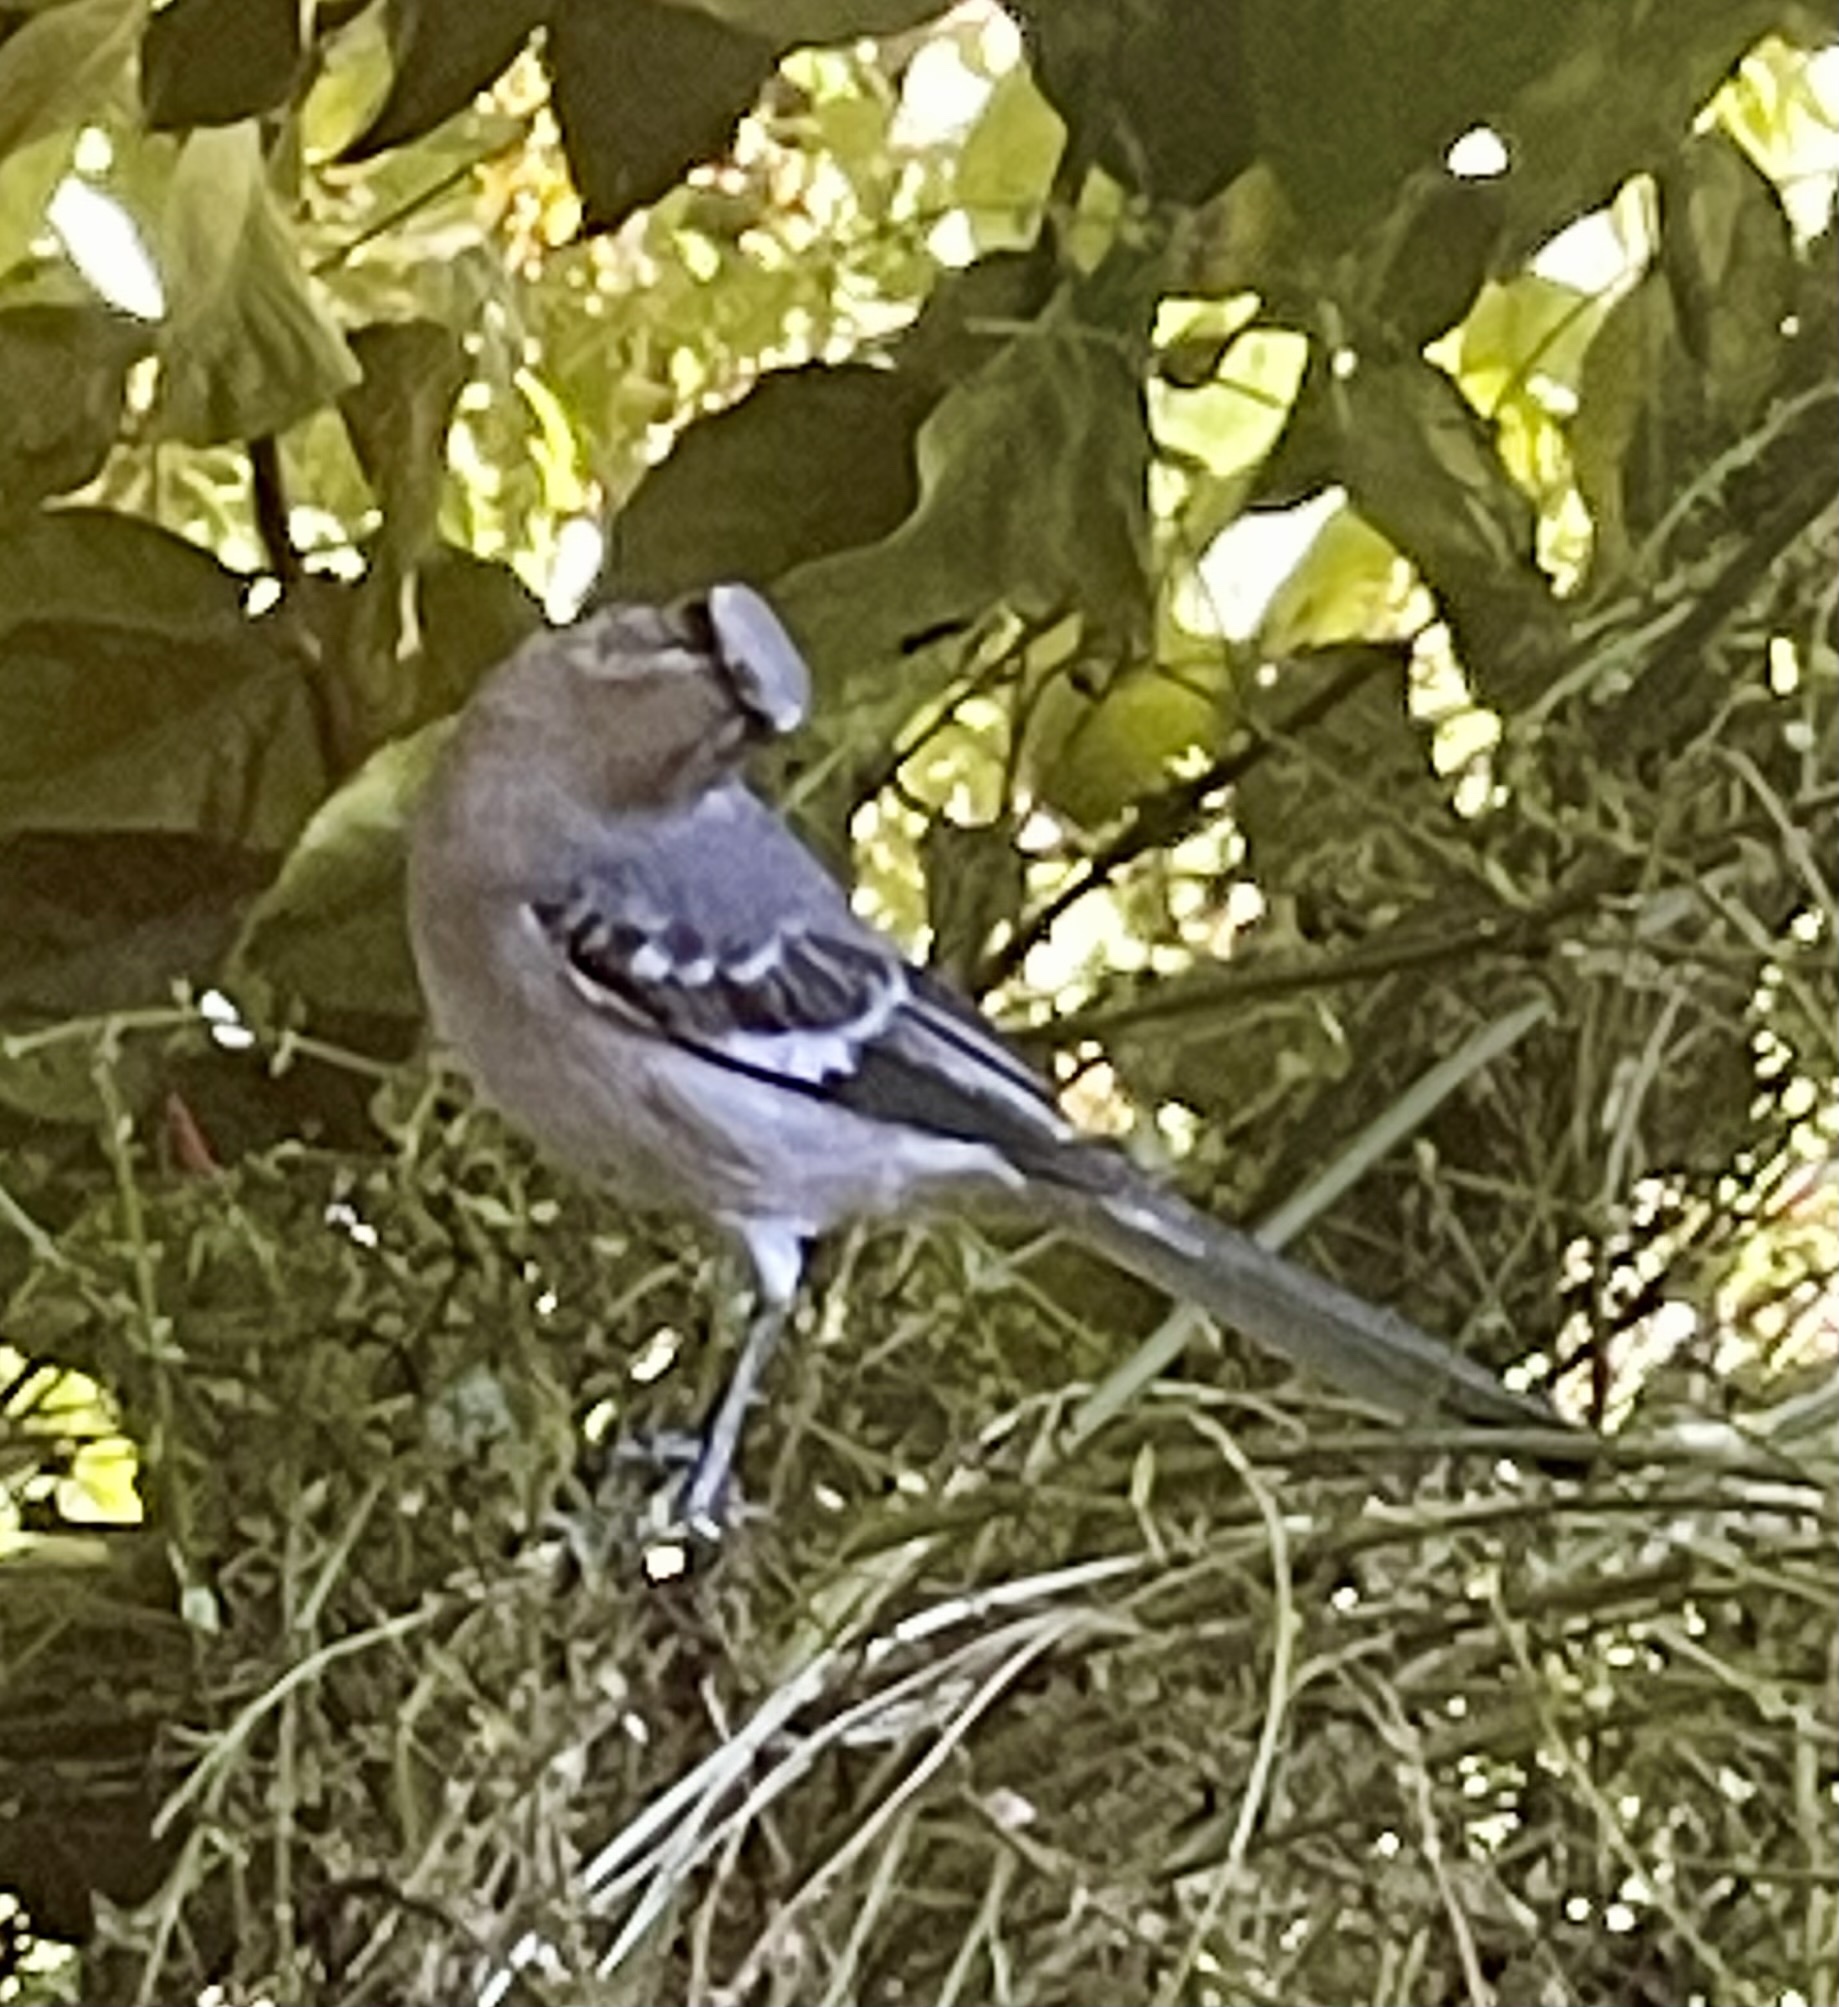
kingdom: Animalia
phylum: Chordata
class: Aves
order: Passeriformes
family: Mimidae
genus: Mimus
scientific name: Mimus polyglottos
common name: Northern mockingbird
